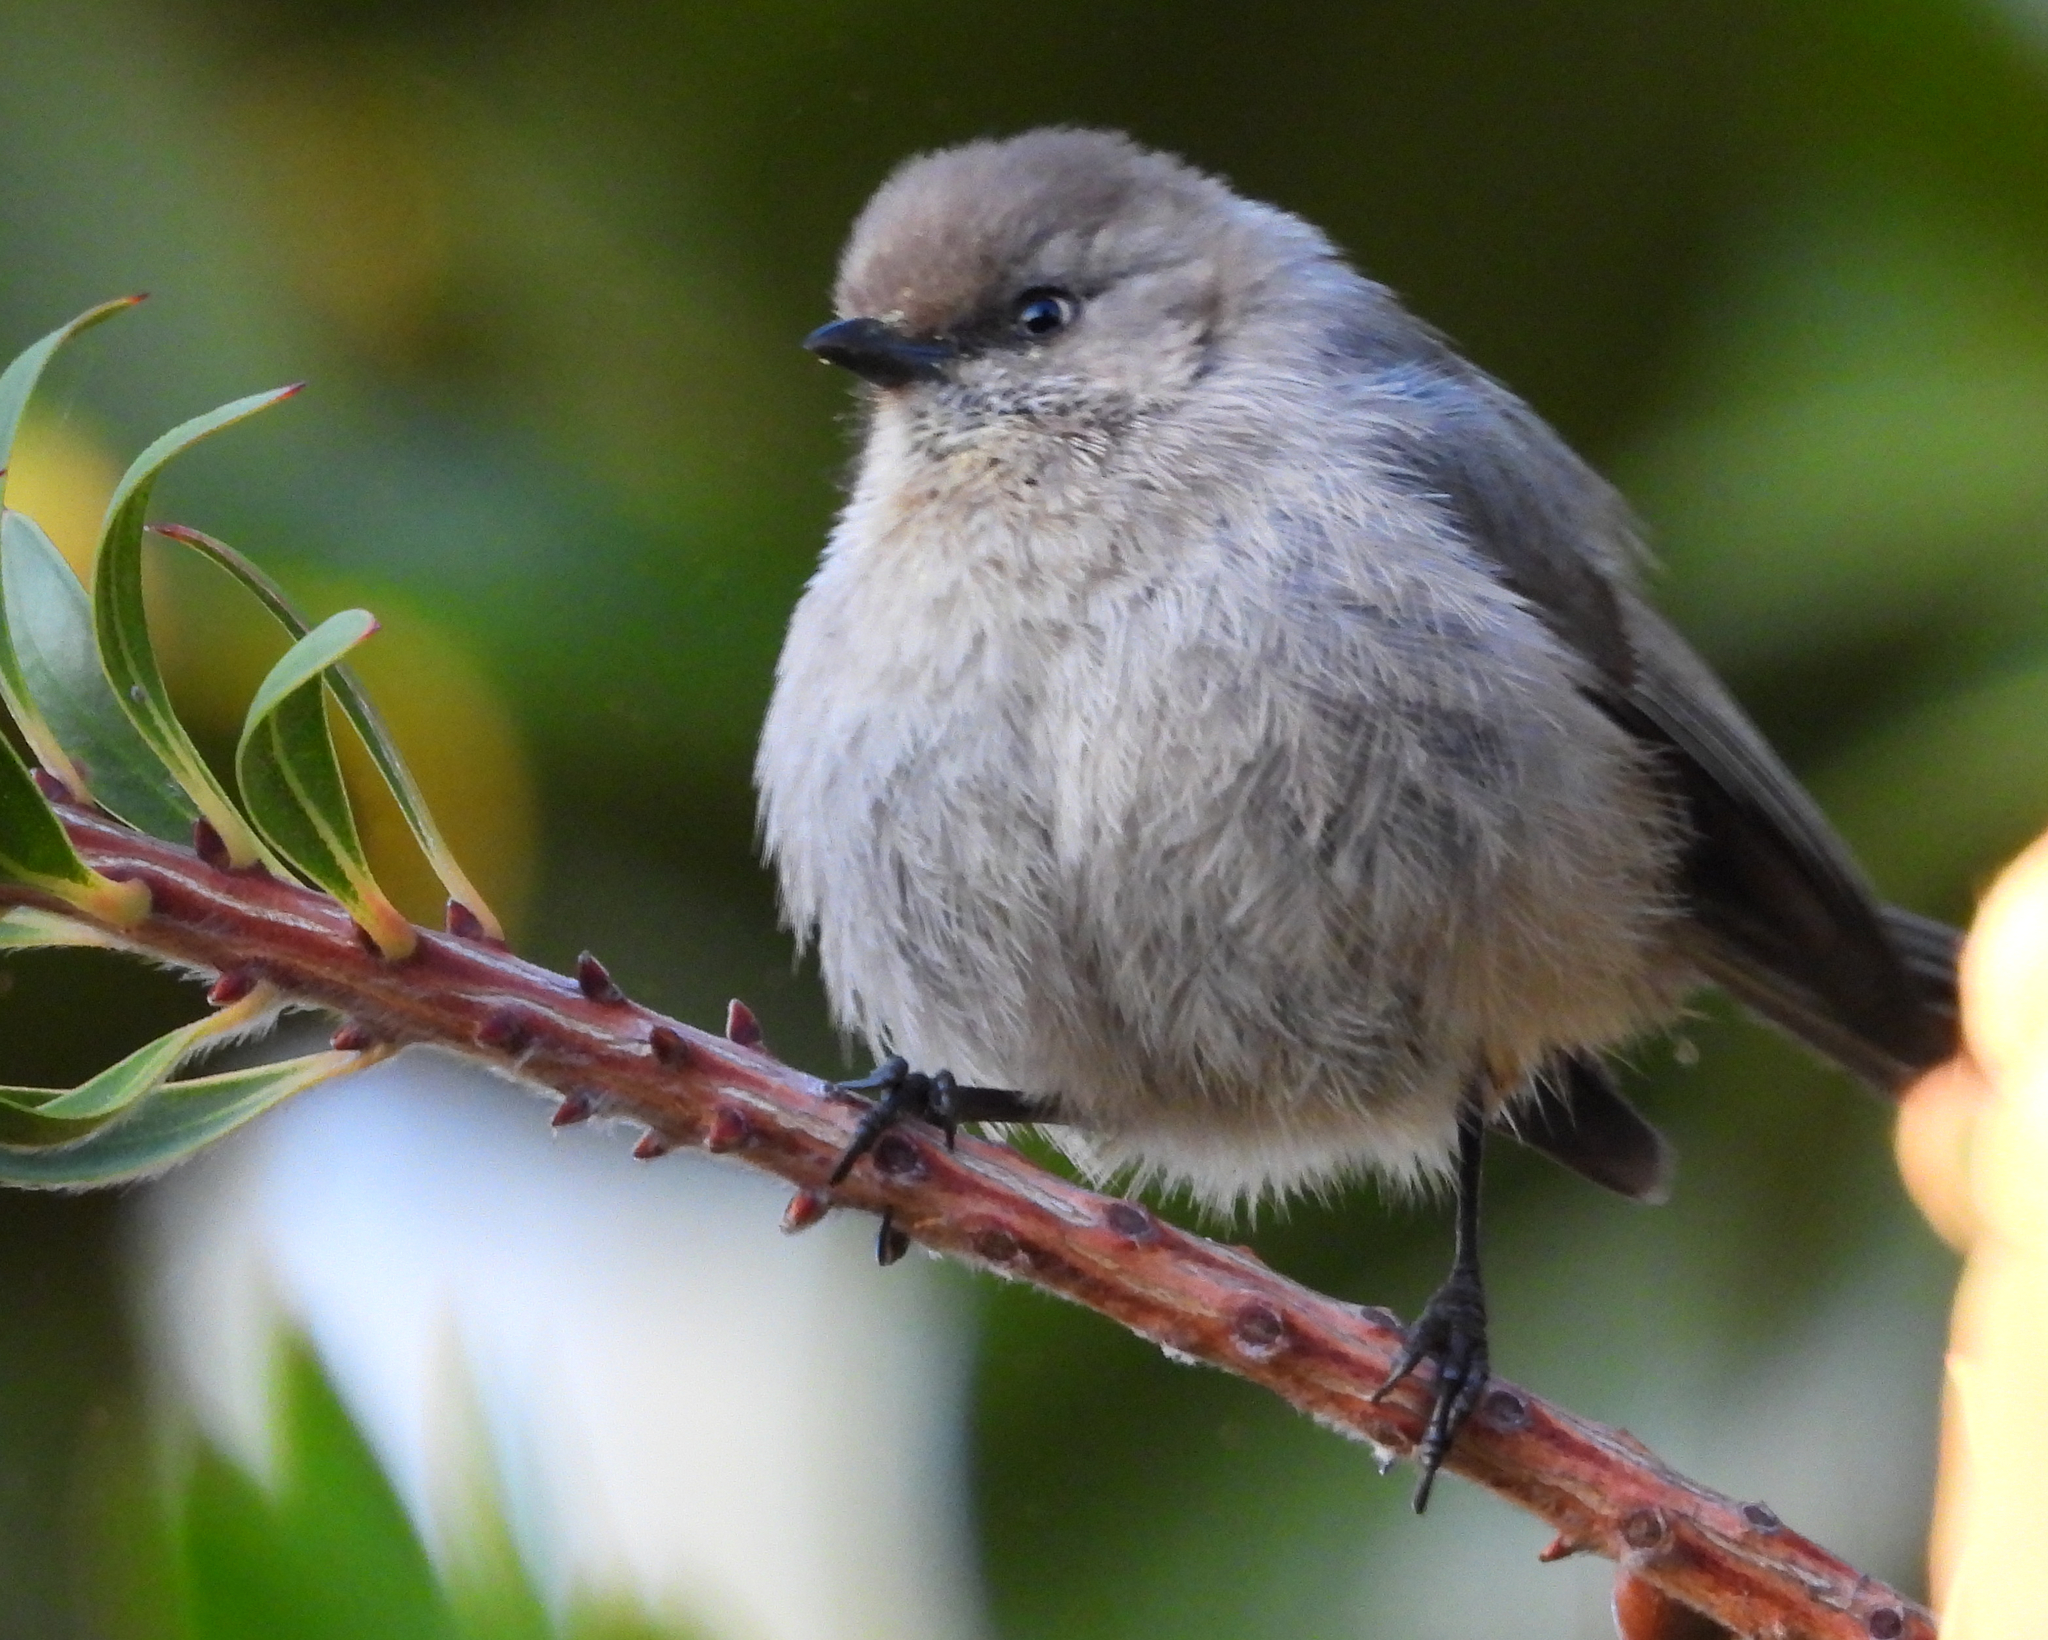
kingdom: Animalia
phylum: Chordata
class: Aves
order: Passeriformes
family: Aegithalidae
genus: Psaltriparus
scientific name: Psaltriparus minimus
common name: American bushtit
